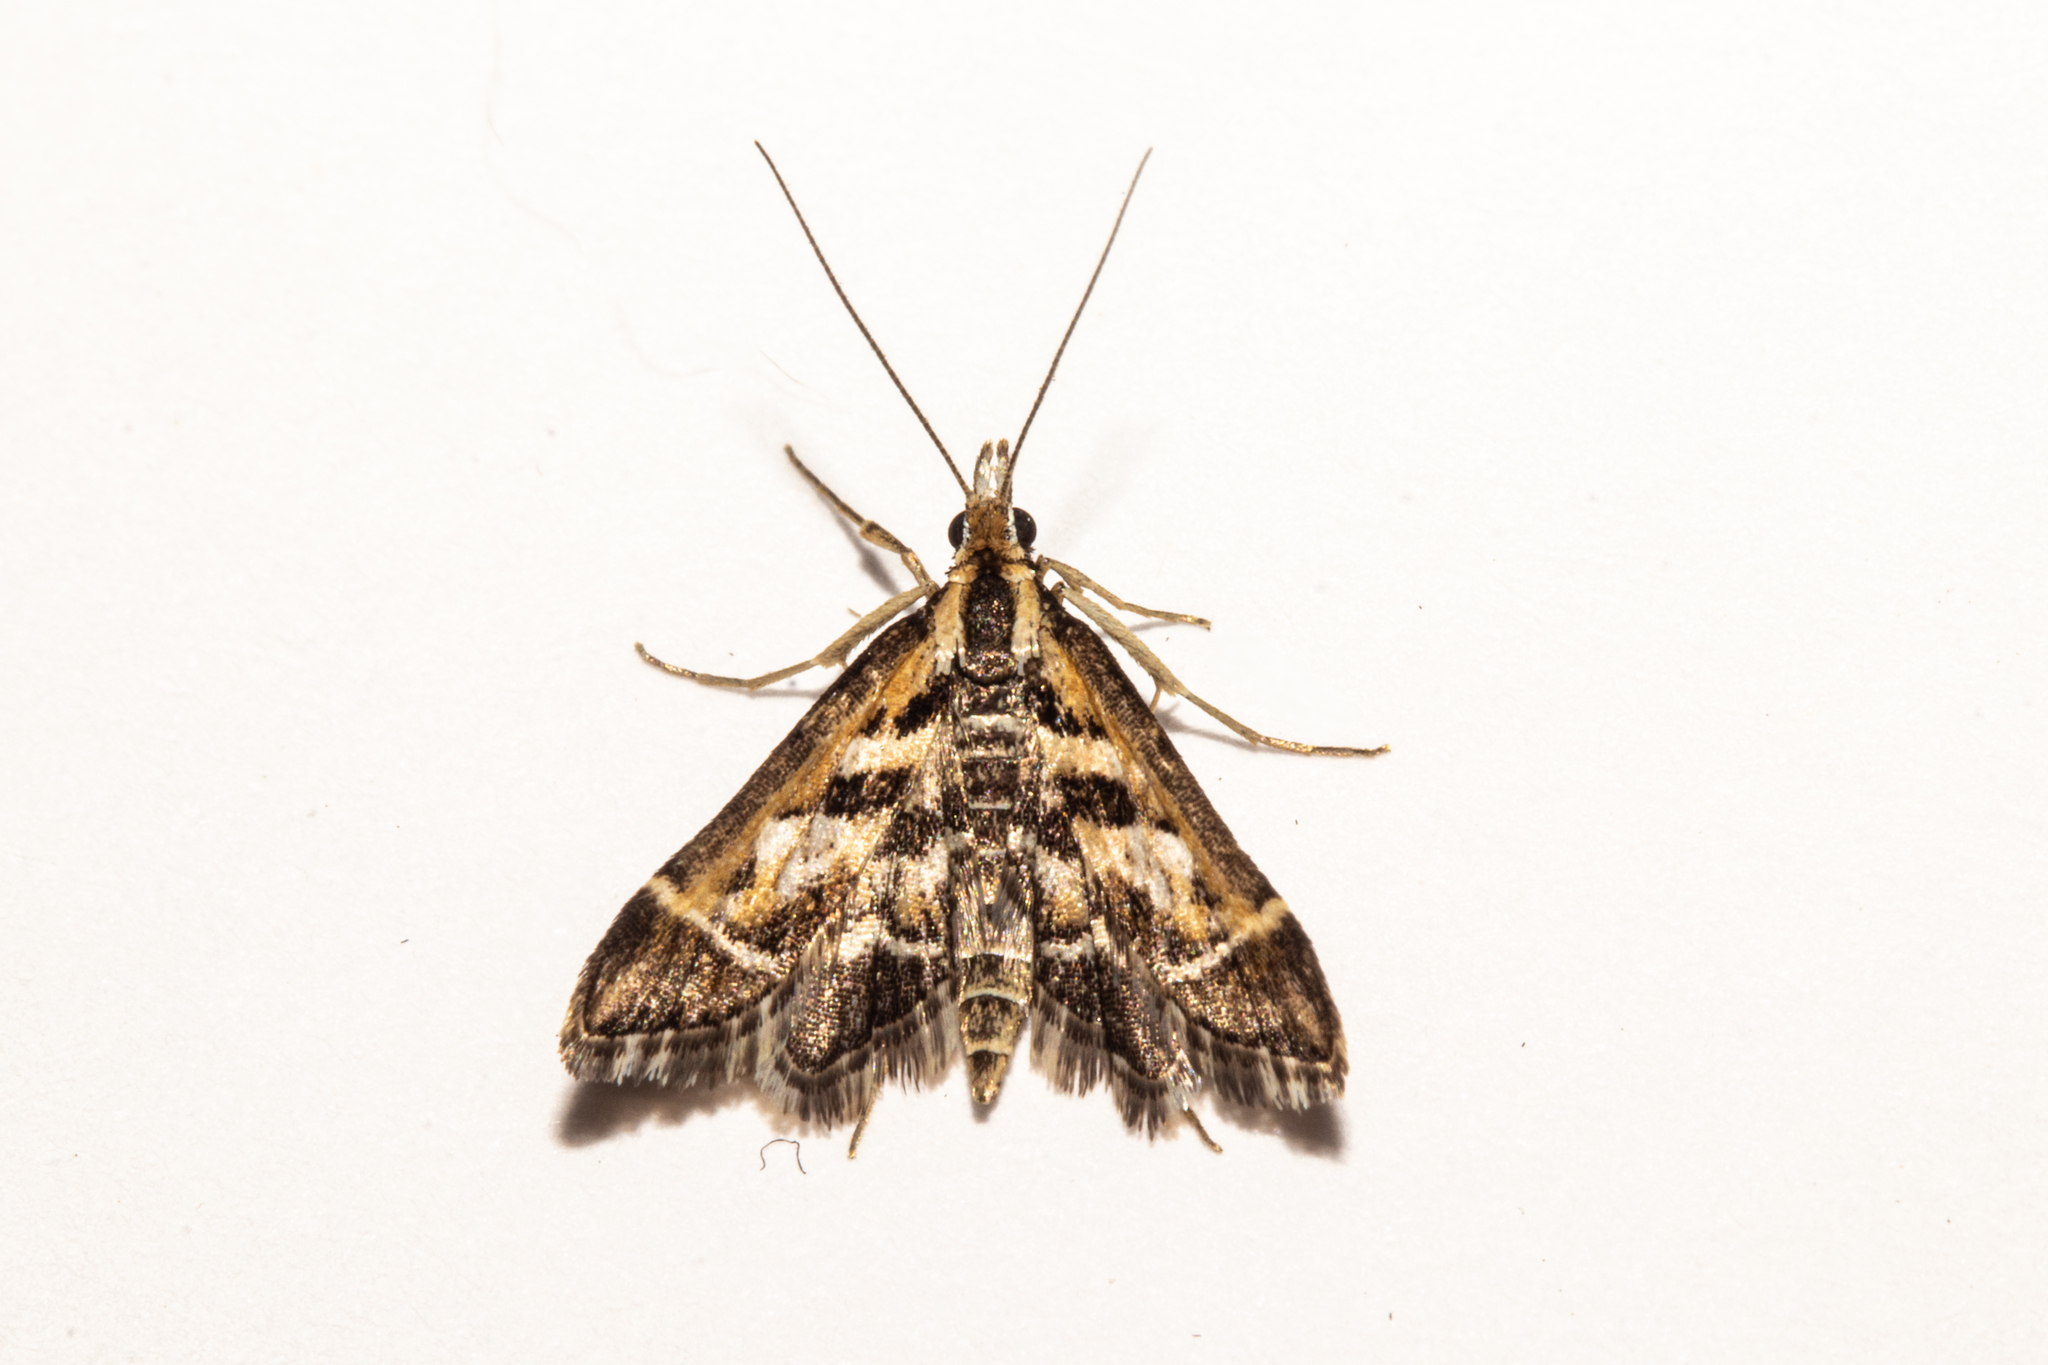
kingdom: Animalia
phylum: Arthropoda
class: Insecta
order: Lepidoptera
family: Crambidae
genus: Diasemia
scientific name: Diasemia grammalis
